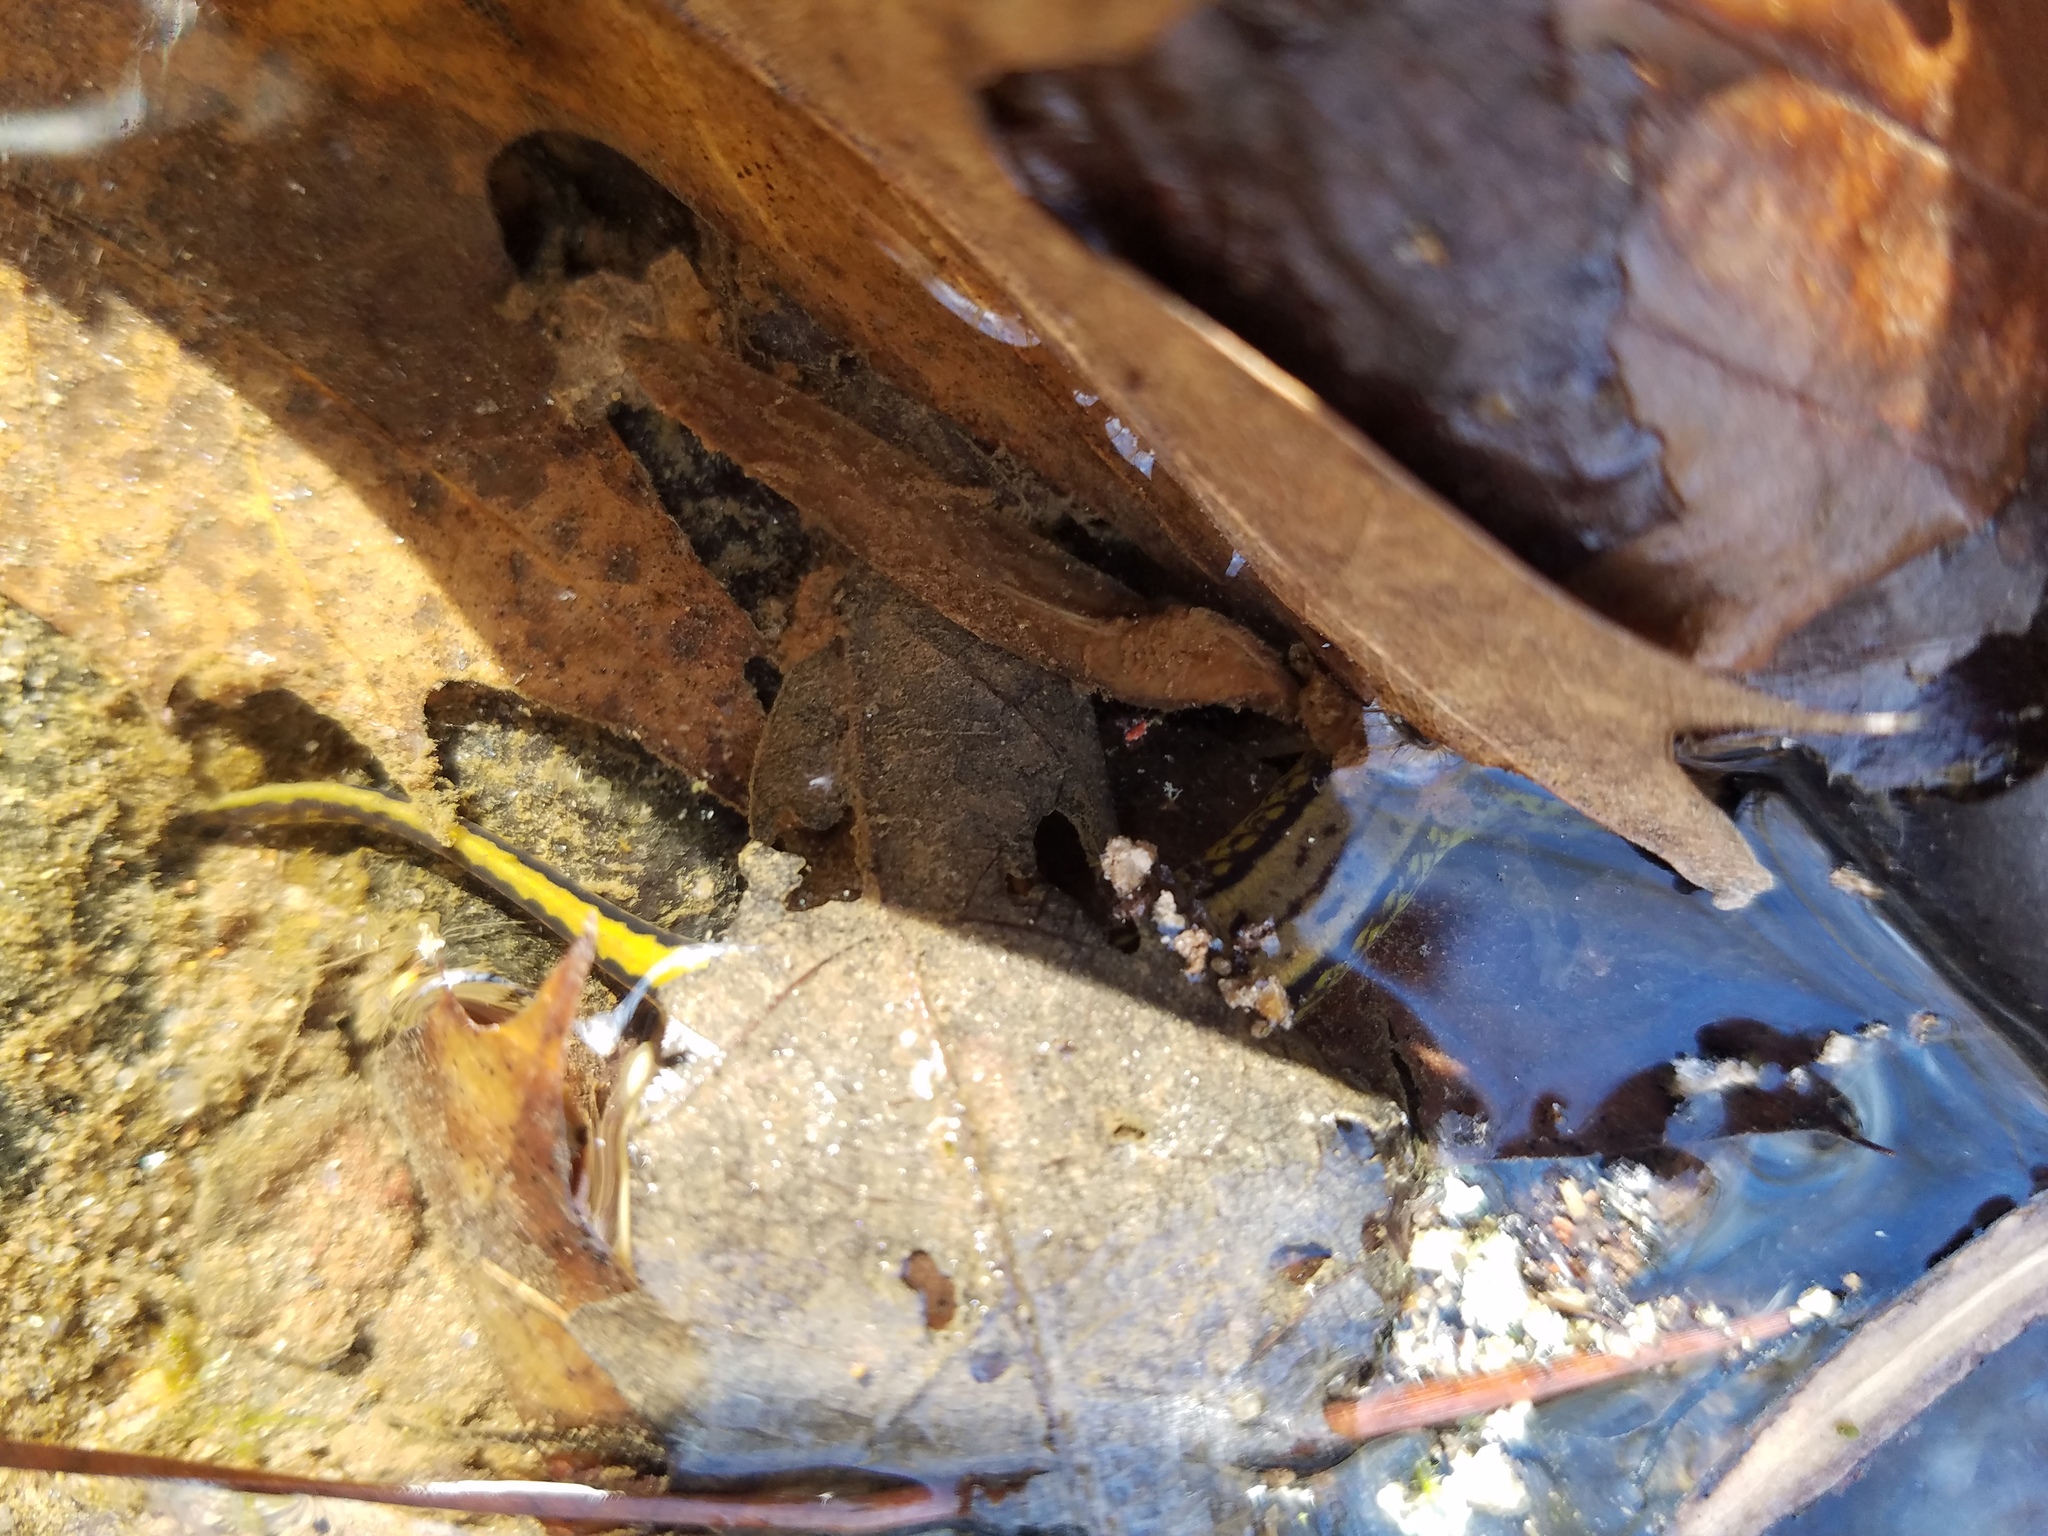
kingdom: Animalia
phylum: Chordata
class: Amphibia
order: Caudata
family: Plethodontidae
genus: Eurycea
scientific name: Eurycea cirrigera
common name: Southern two-lined salamander
